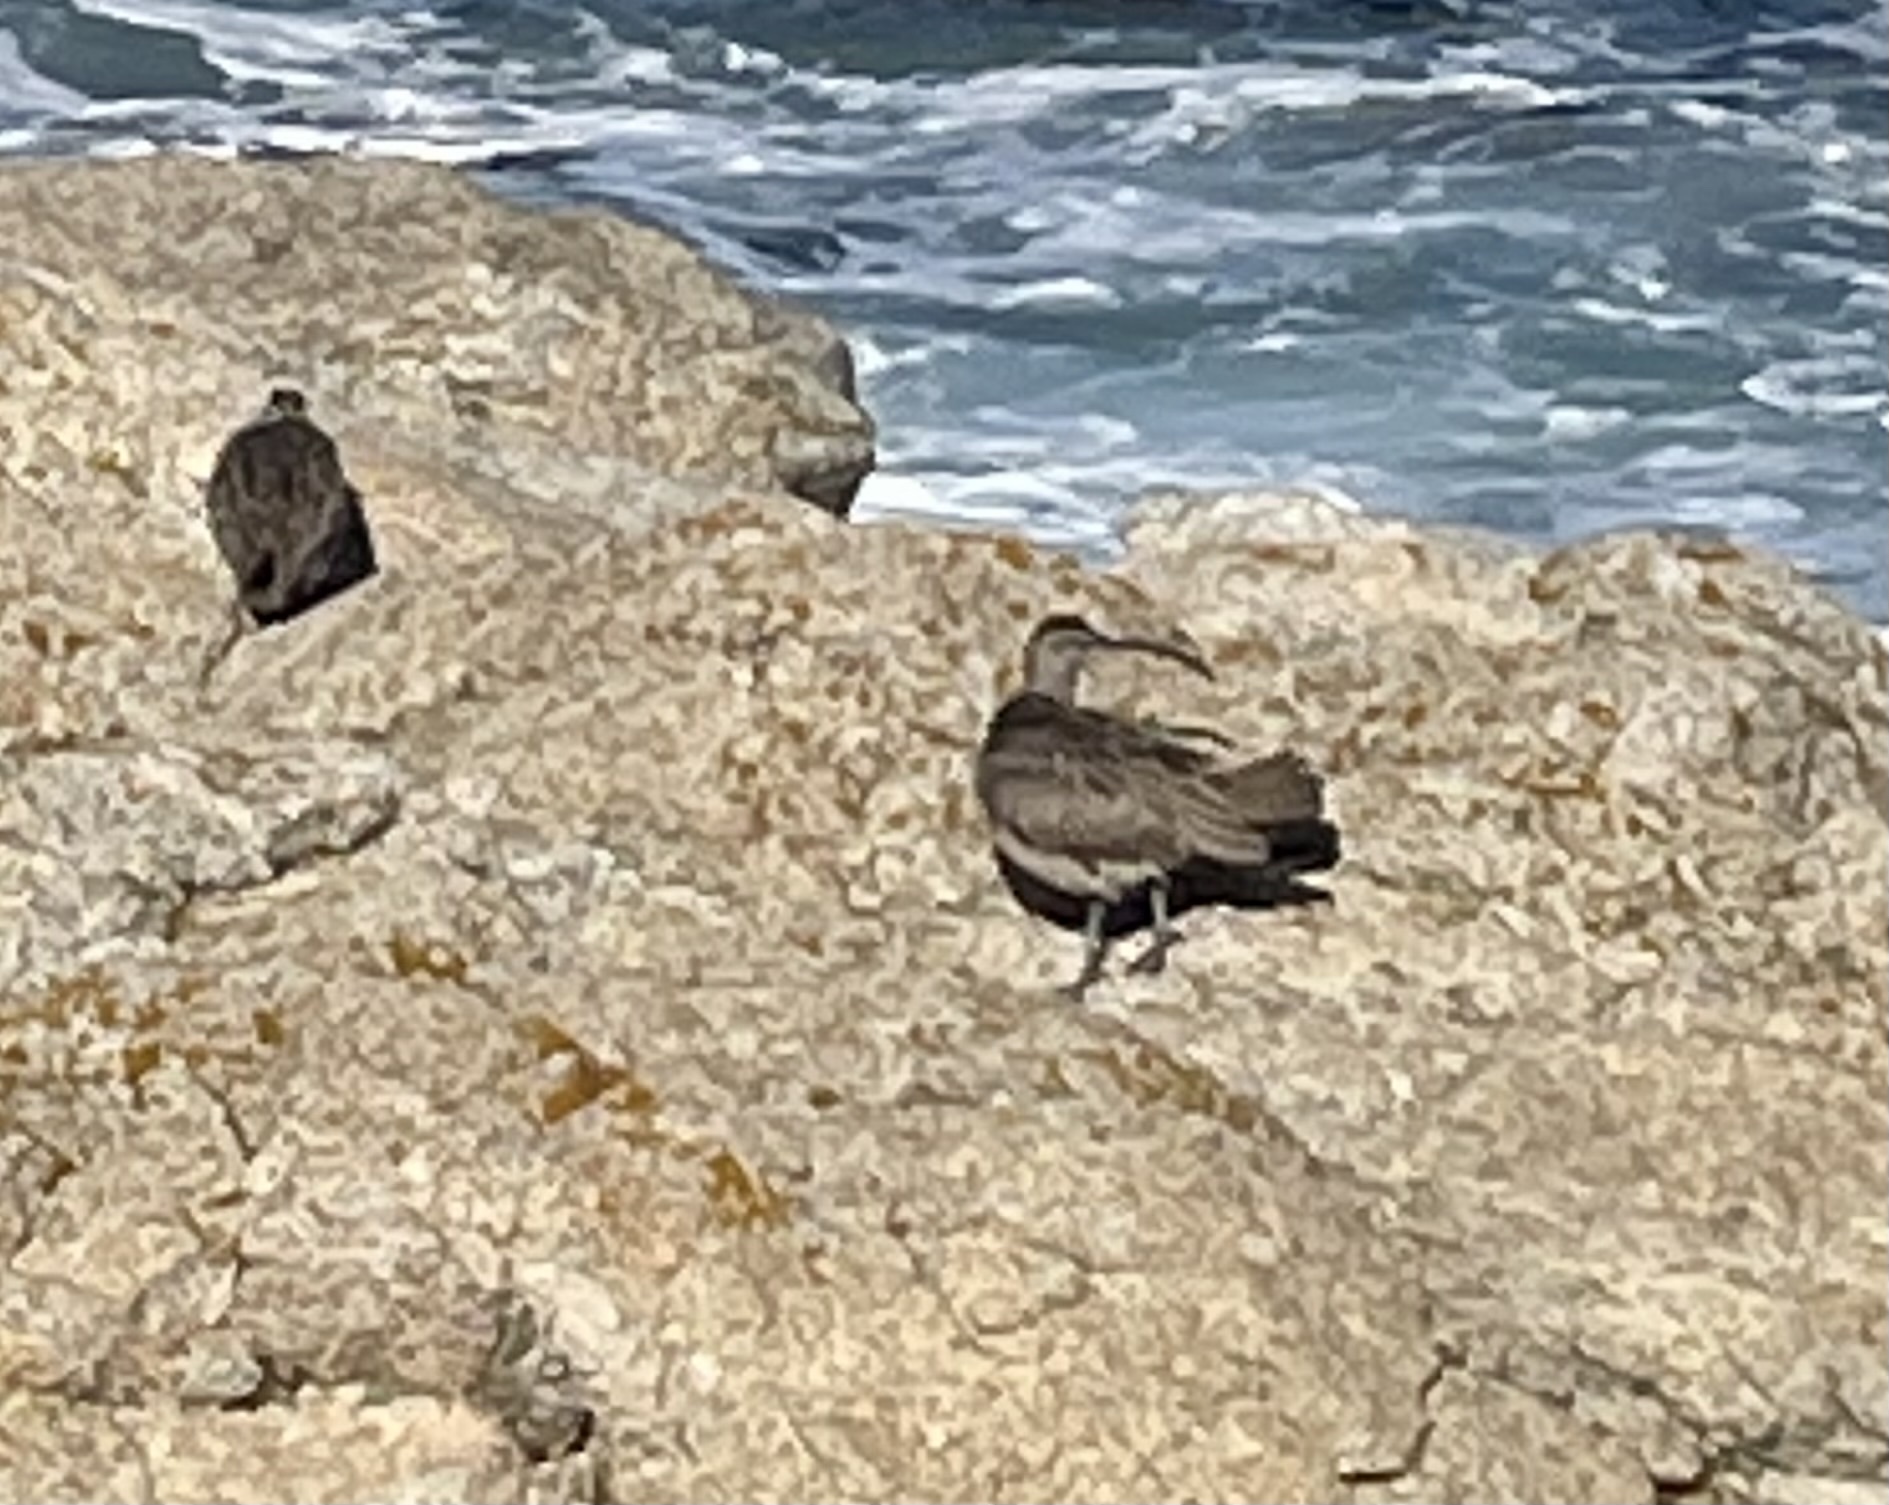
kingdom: Animalia
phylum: Chordata
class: Aves
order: Charadriiformes
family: Scolopacidae
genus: Numenius
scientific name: Numenius phaeopus
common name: Whimbrel
